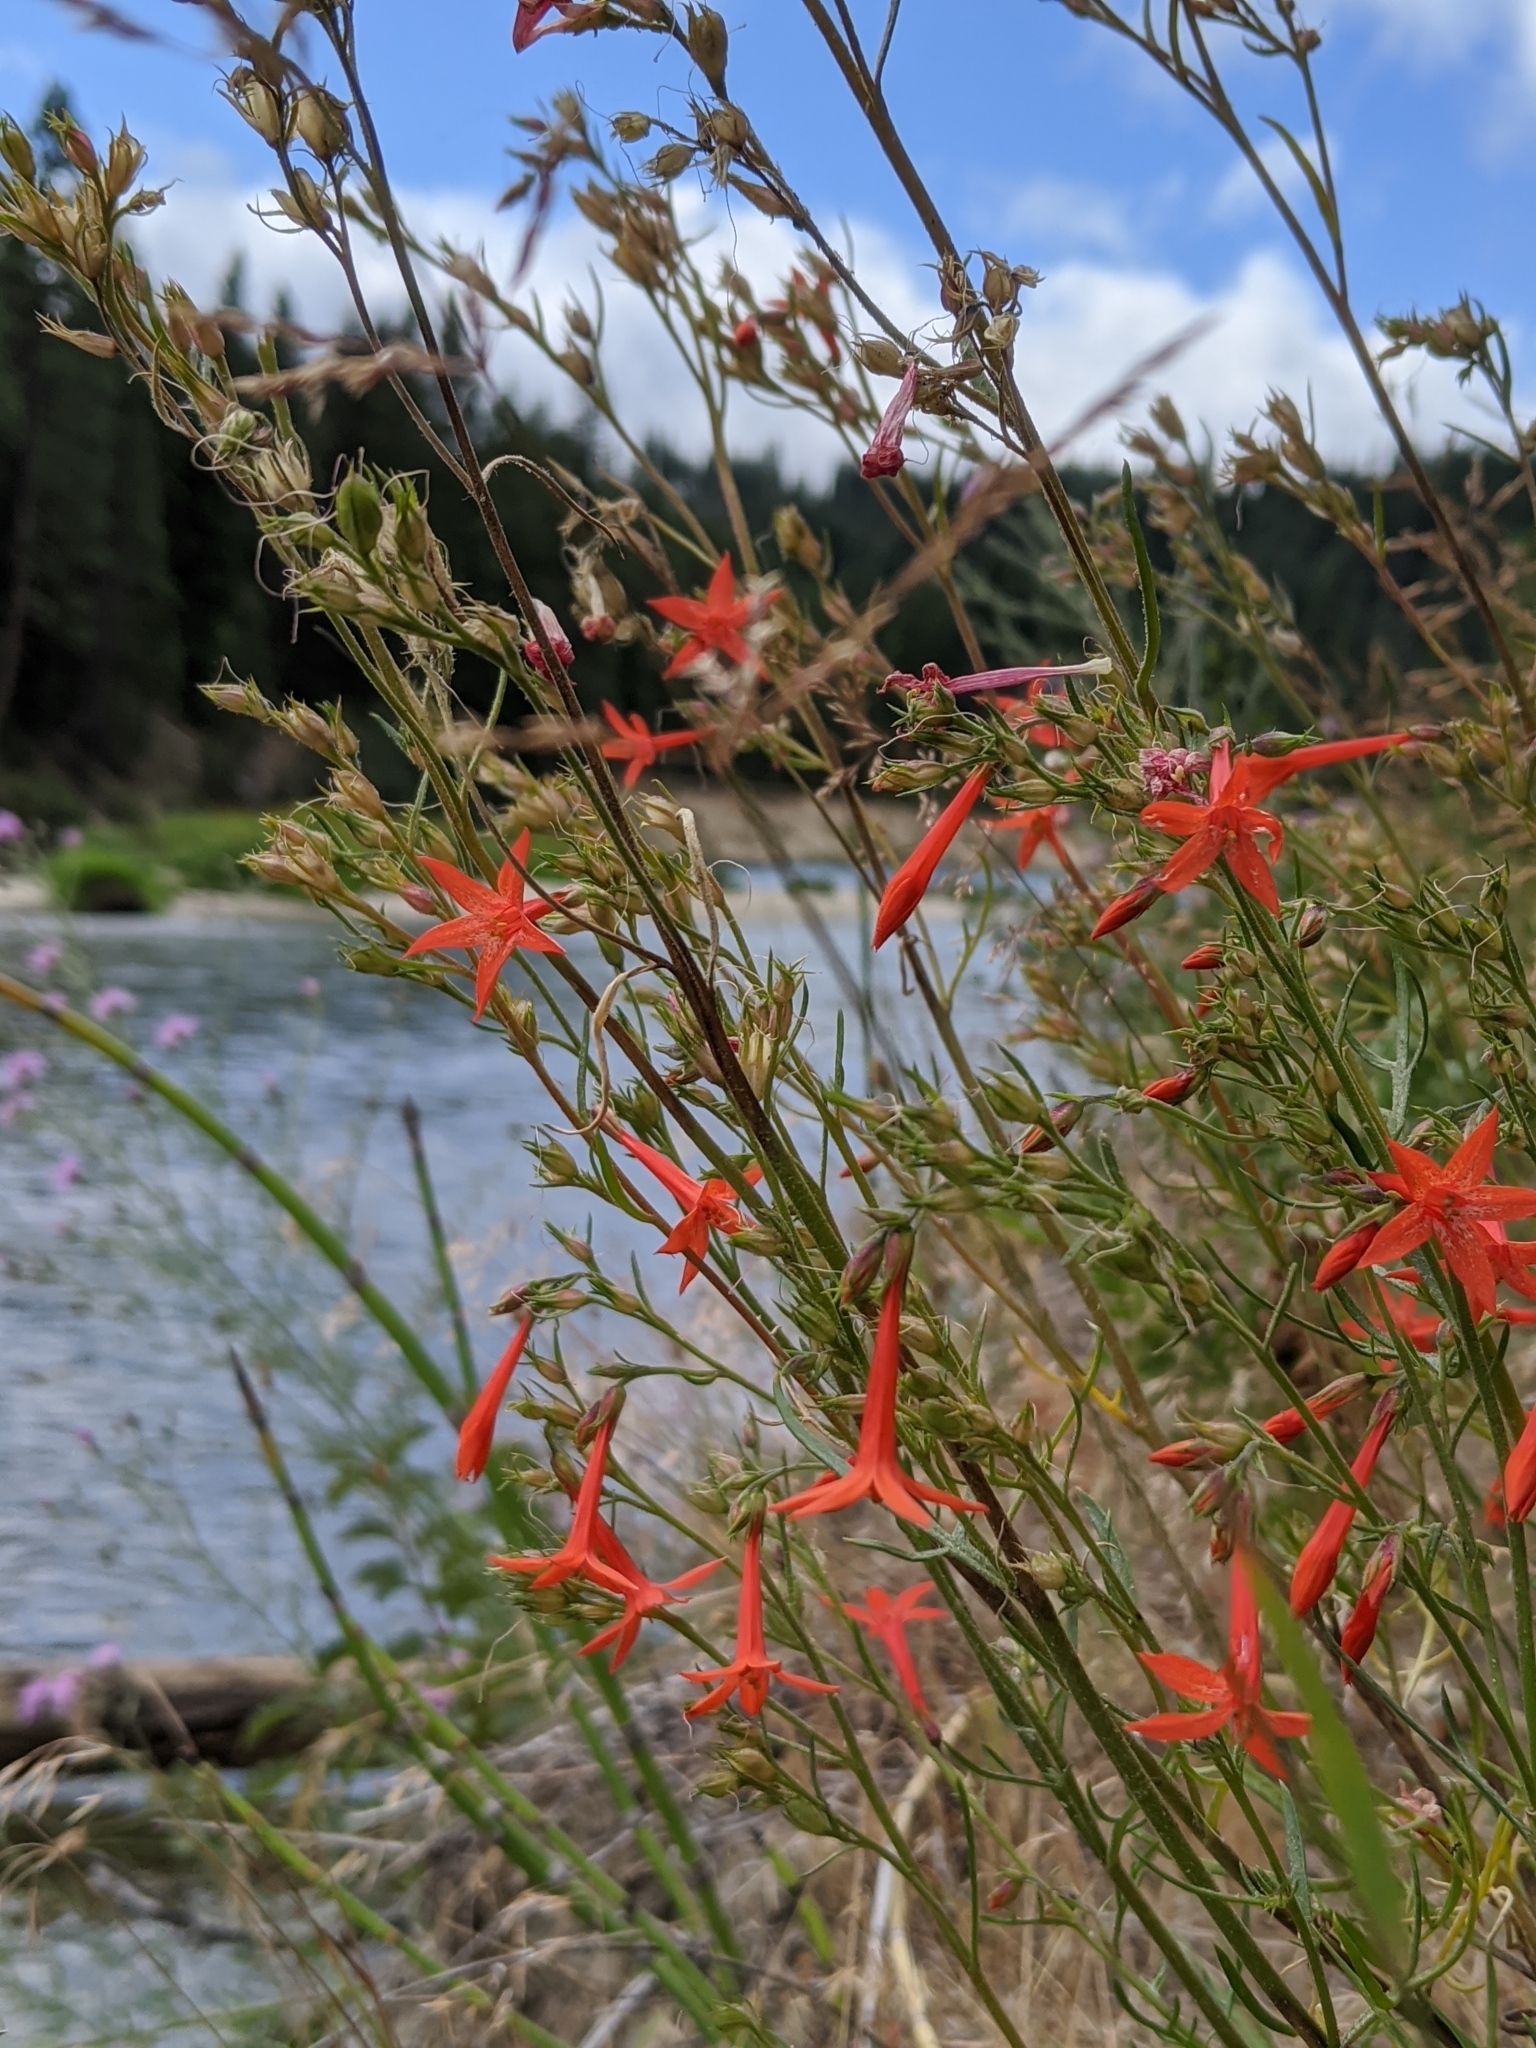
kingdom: Plantae
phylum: Tracheophyta
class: Magnoliopsida
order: Ericales
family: Polemoniaceae
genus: Ipomopsis
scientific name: Ipomopsis aggregata
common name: Scarlet gilia
